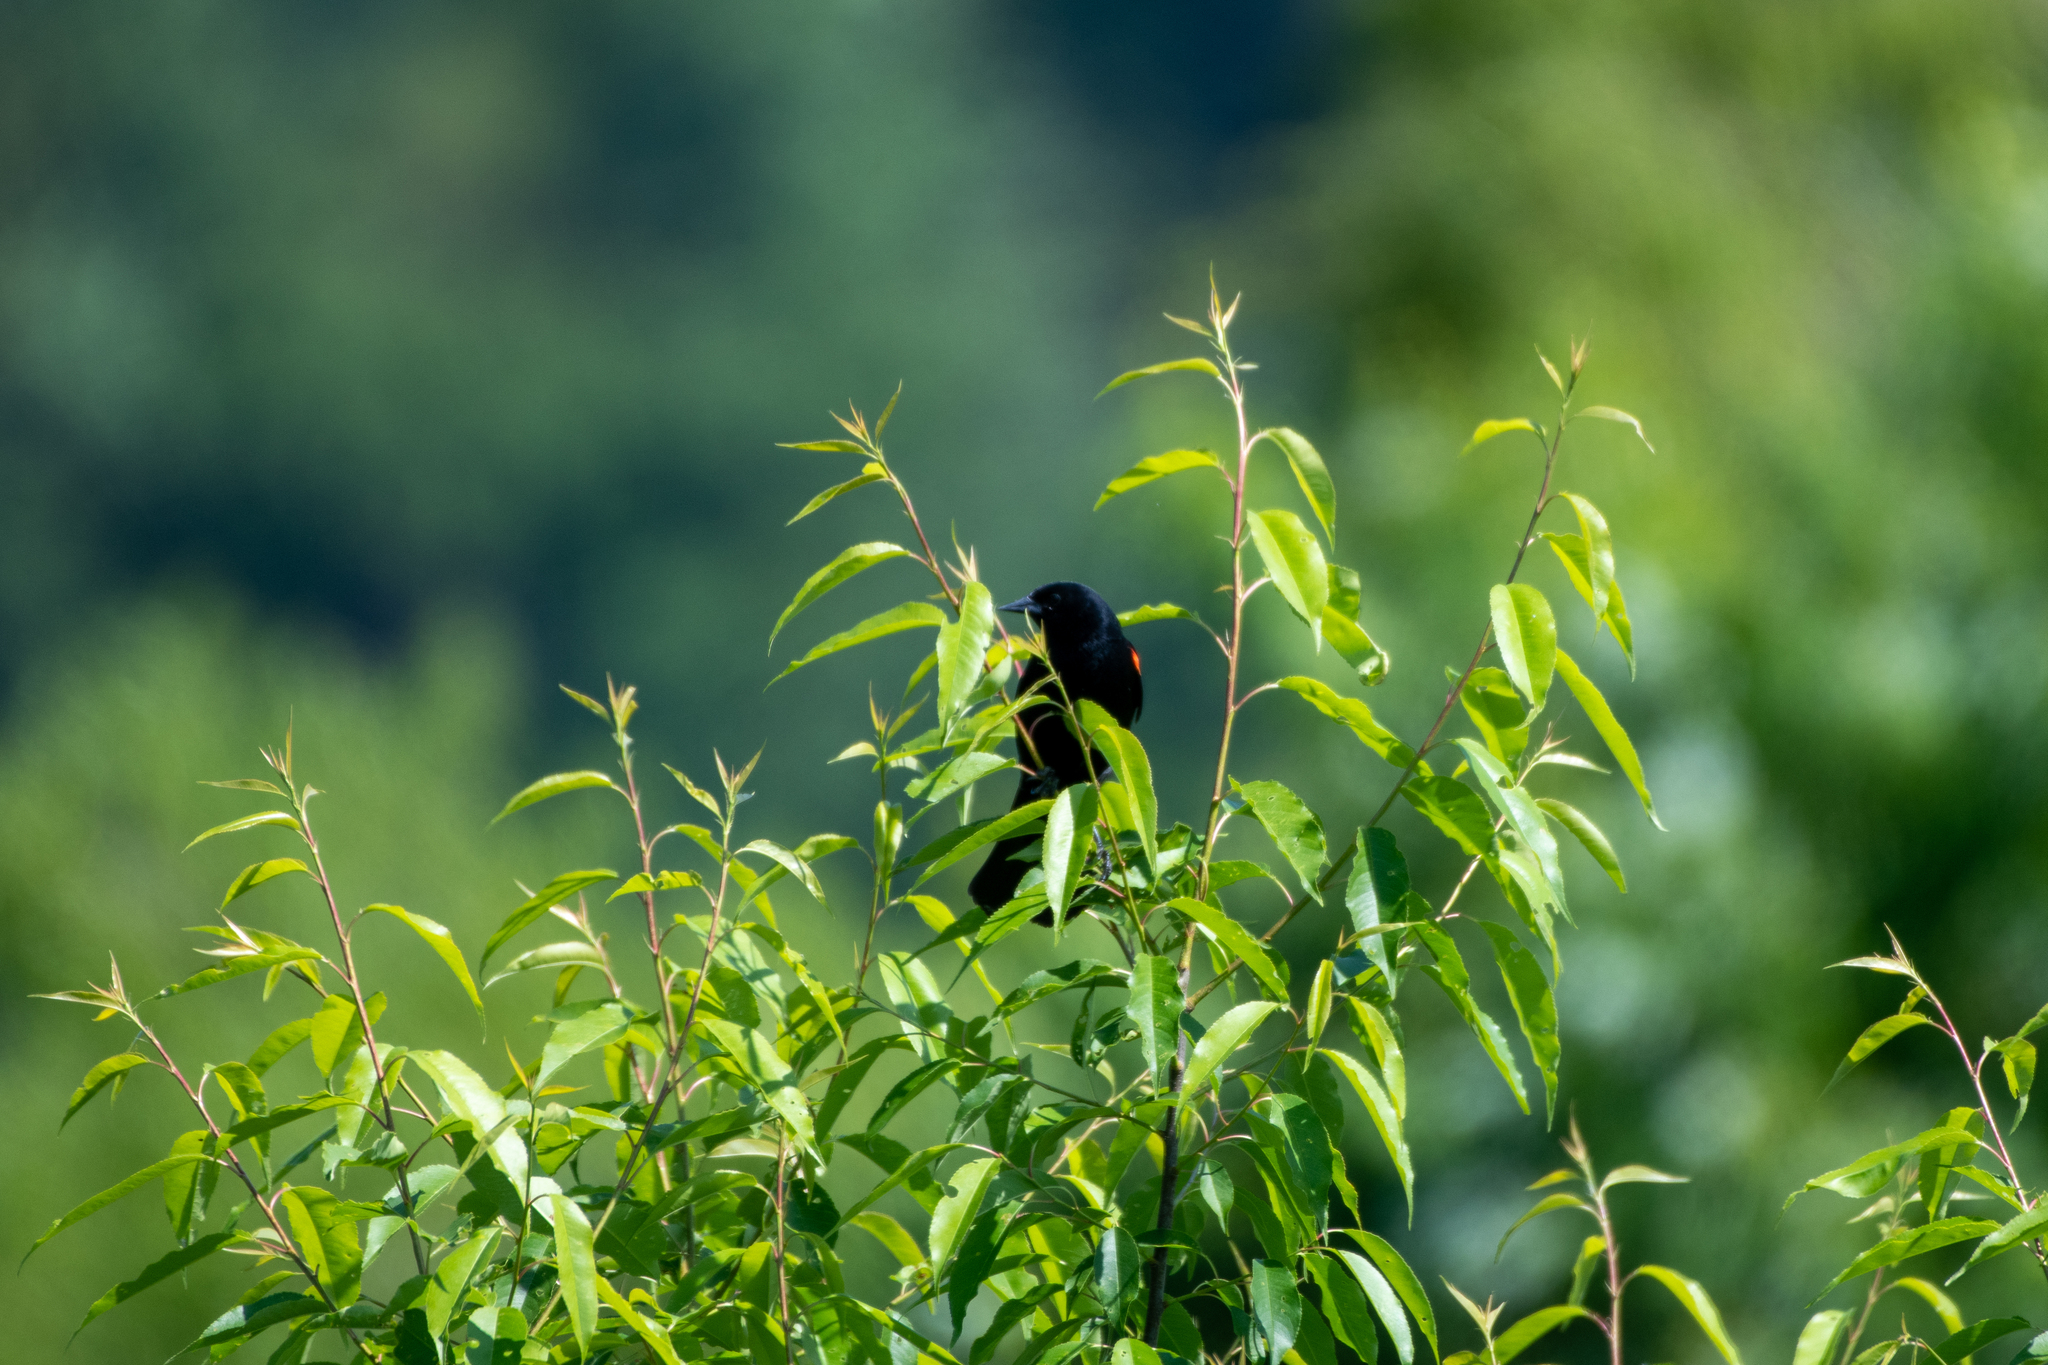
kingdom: Animalia
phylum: Chordata
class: Aves
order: Passeriformes
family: Icteridae
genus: Agelaius
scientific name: Agelaius phoeniceus
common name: Red-winged blackbird
